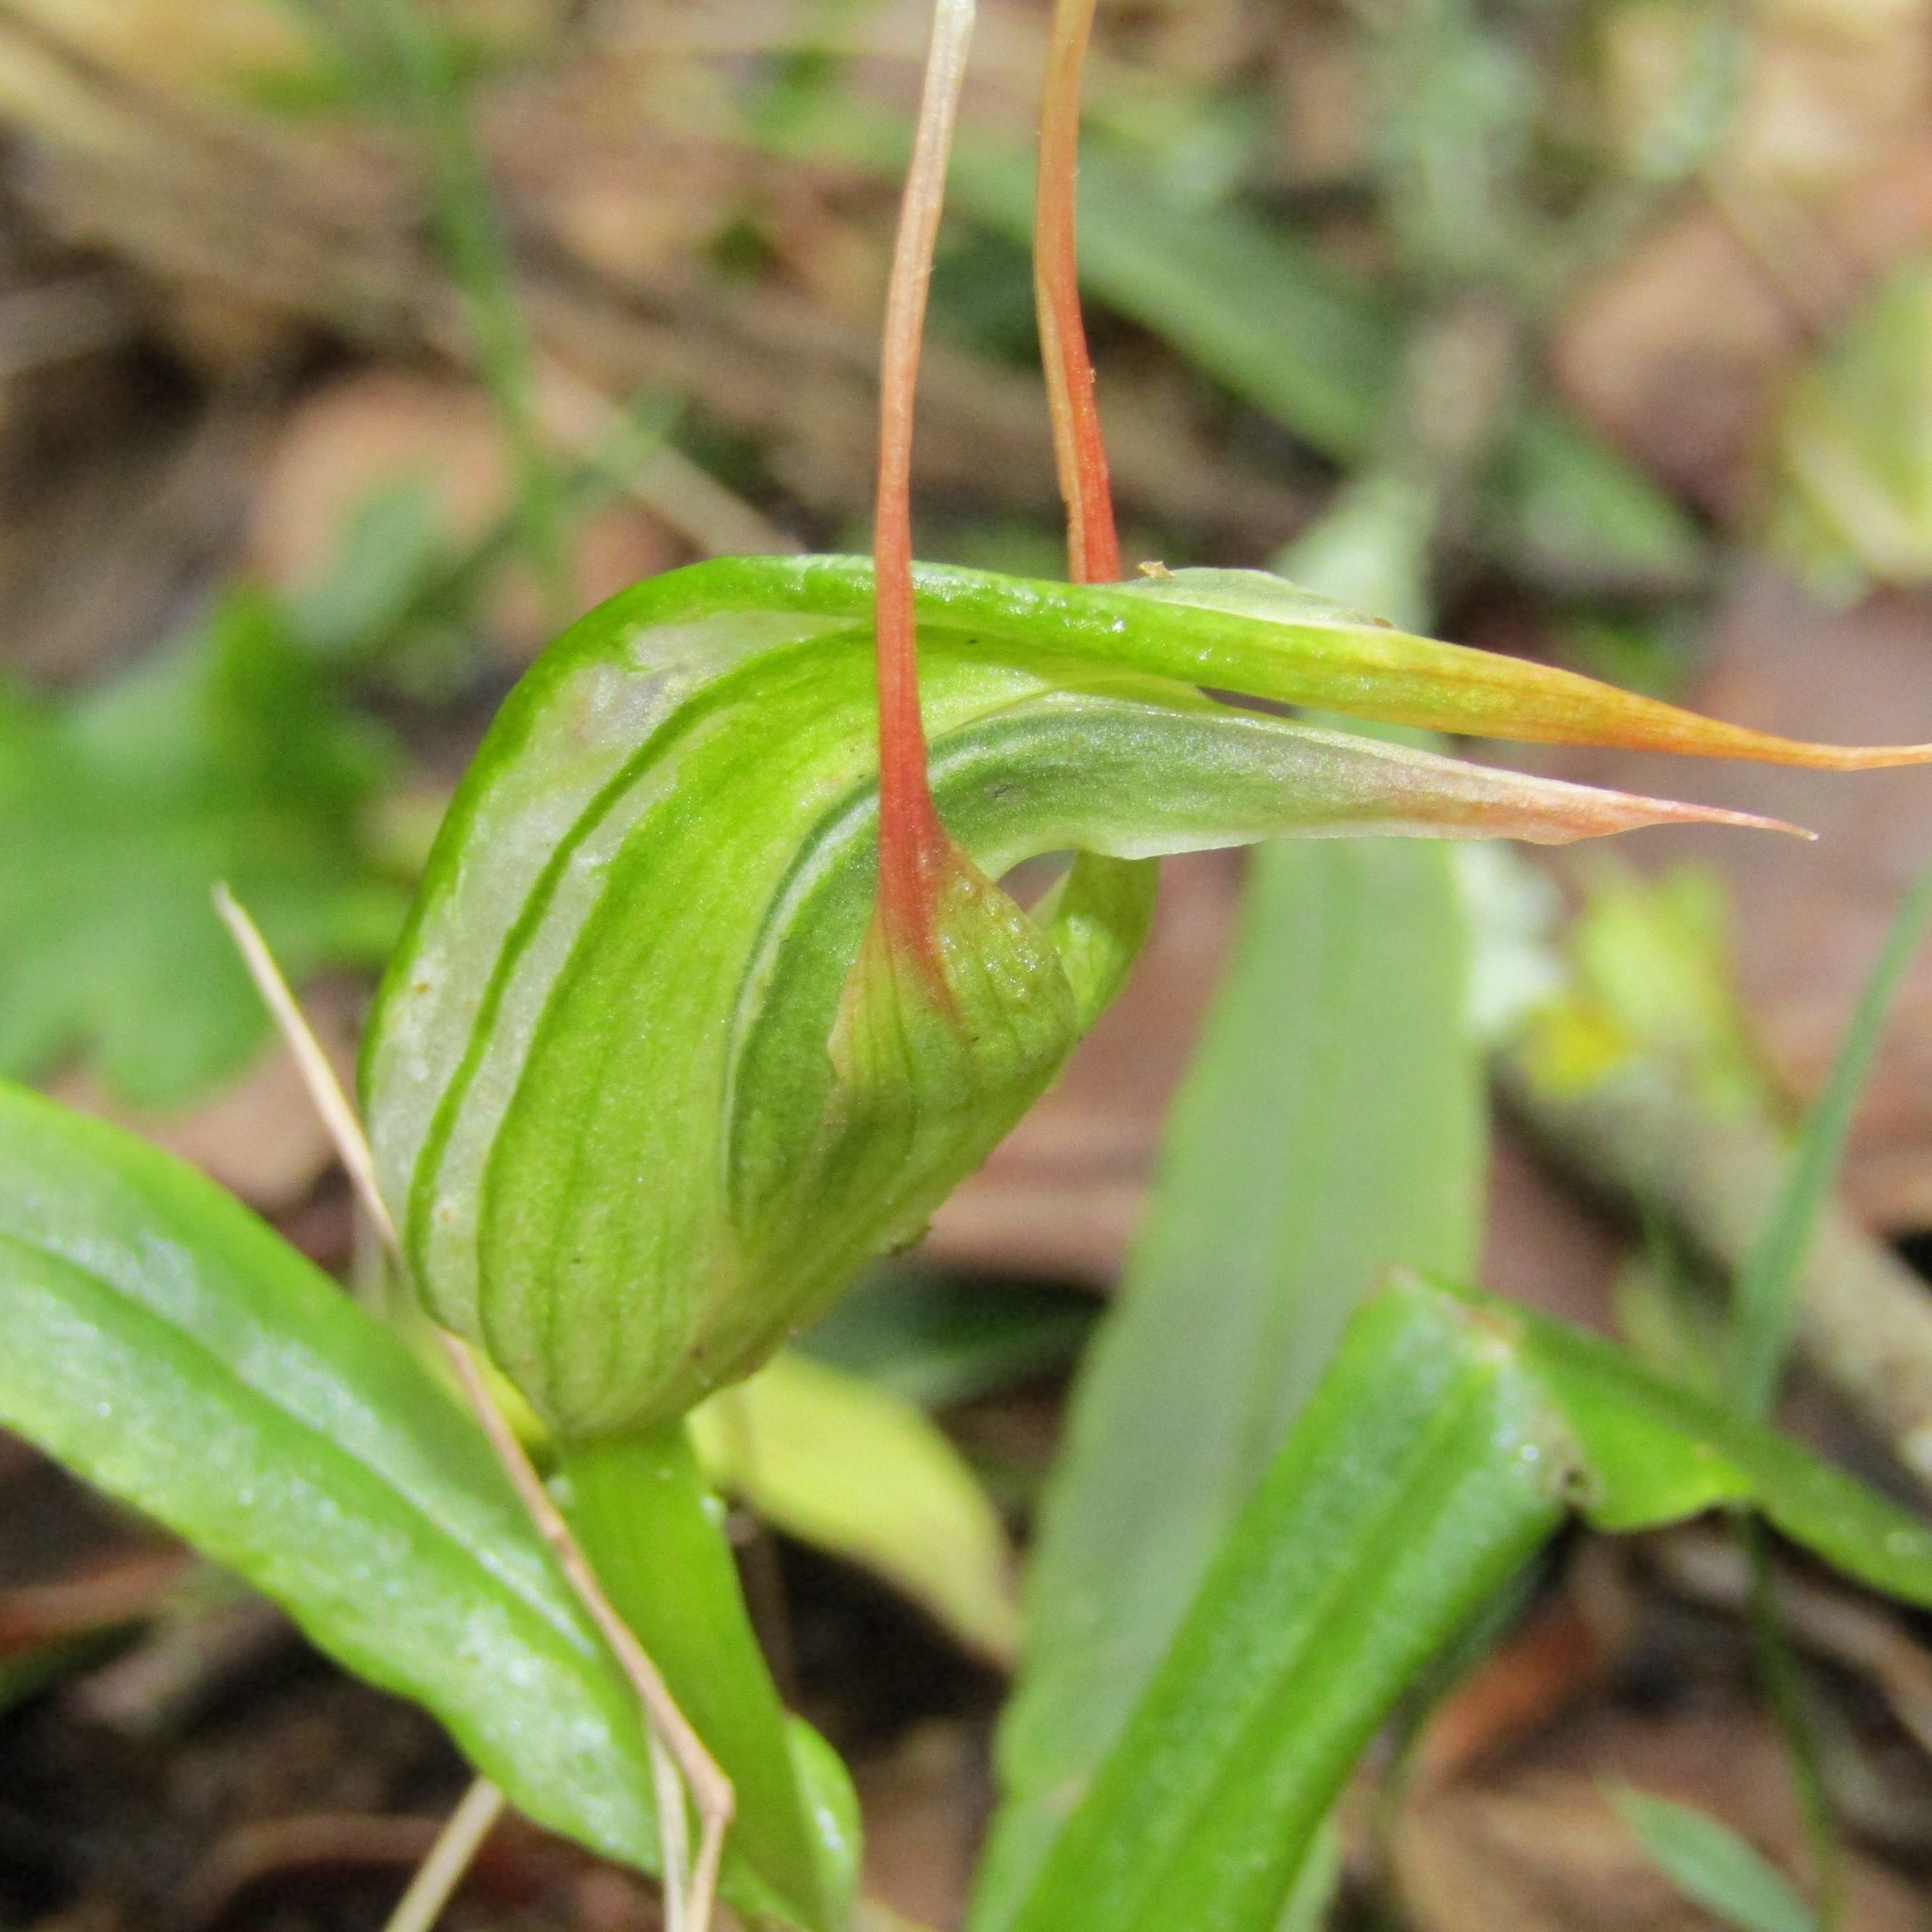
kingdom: Plantae
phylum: Tracheophyta
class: Liliopsida
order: Asparagales
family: Orchidaceae
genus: Pterostylis
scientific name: Pterostylis banksii
